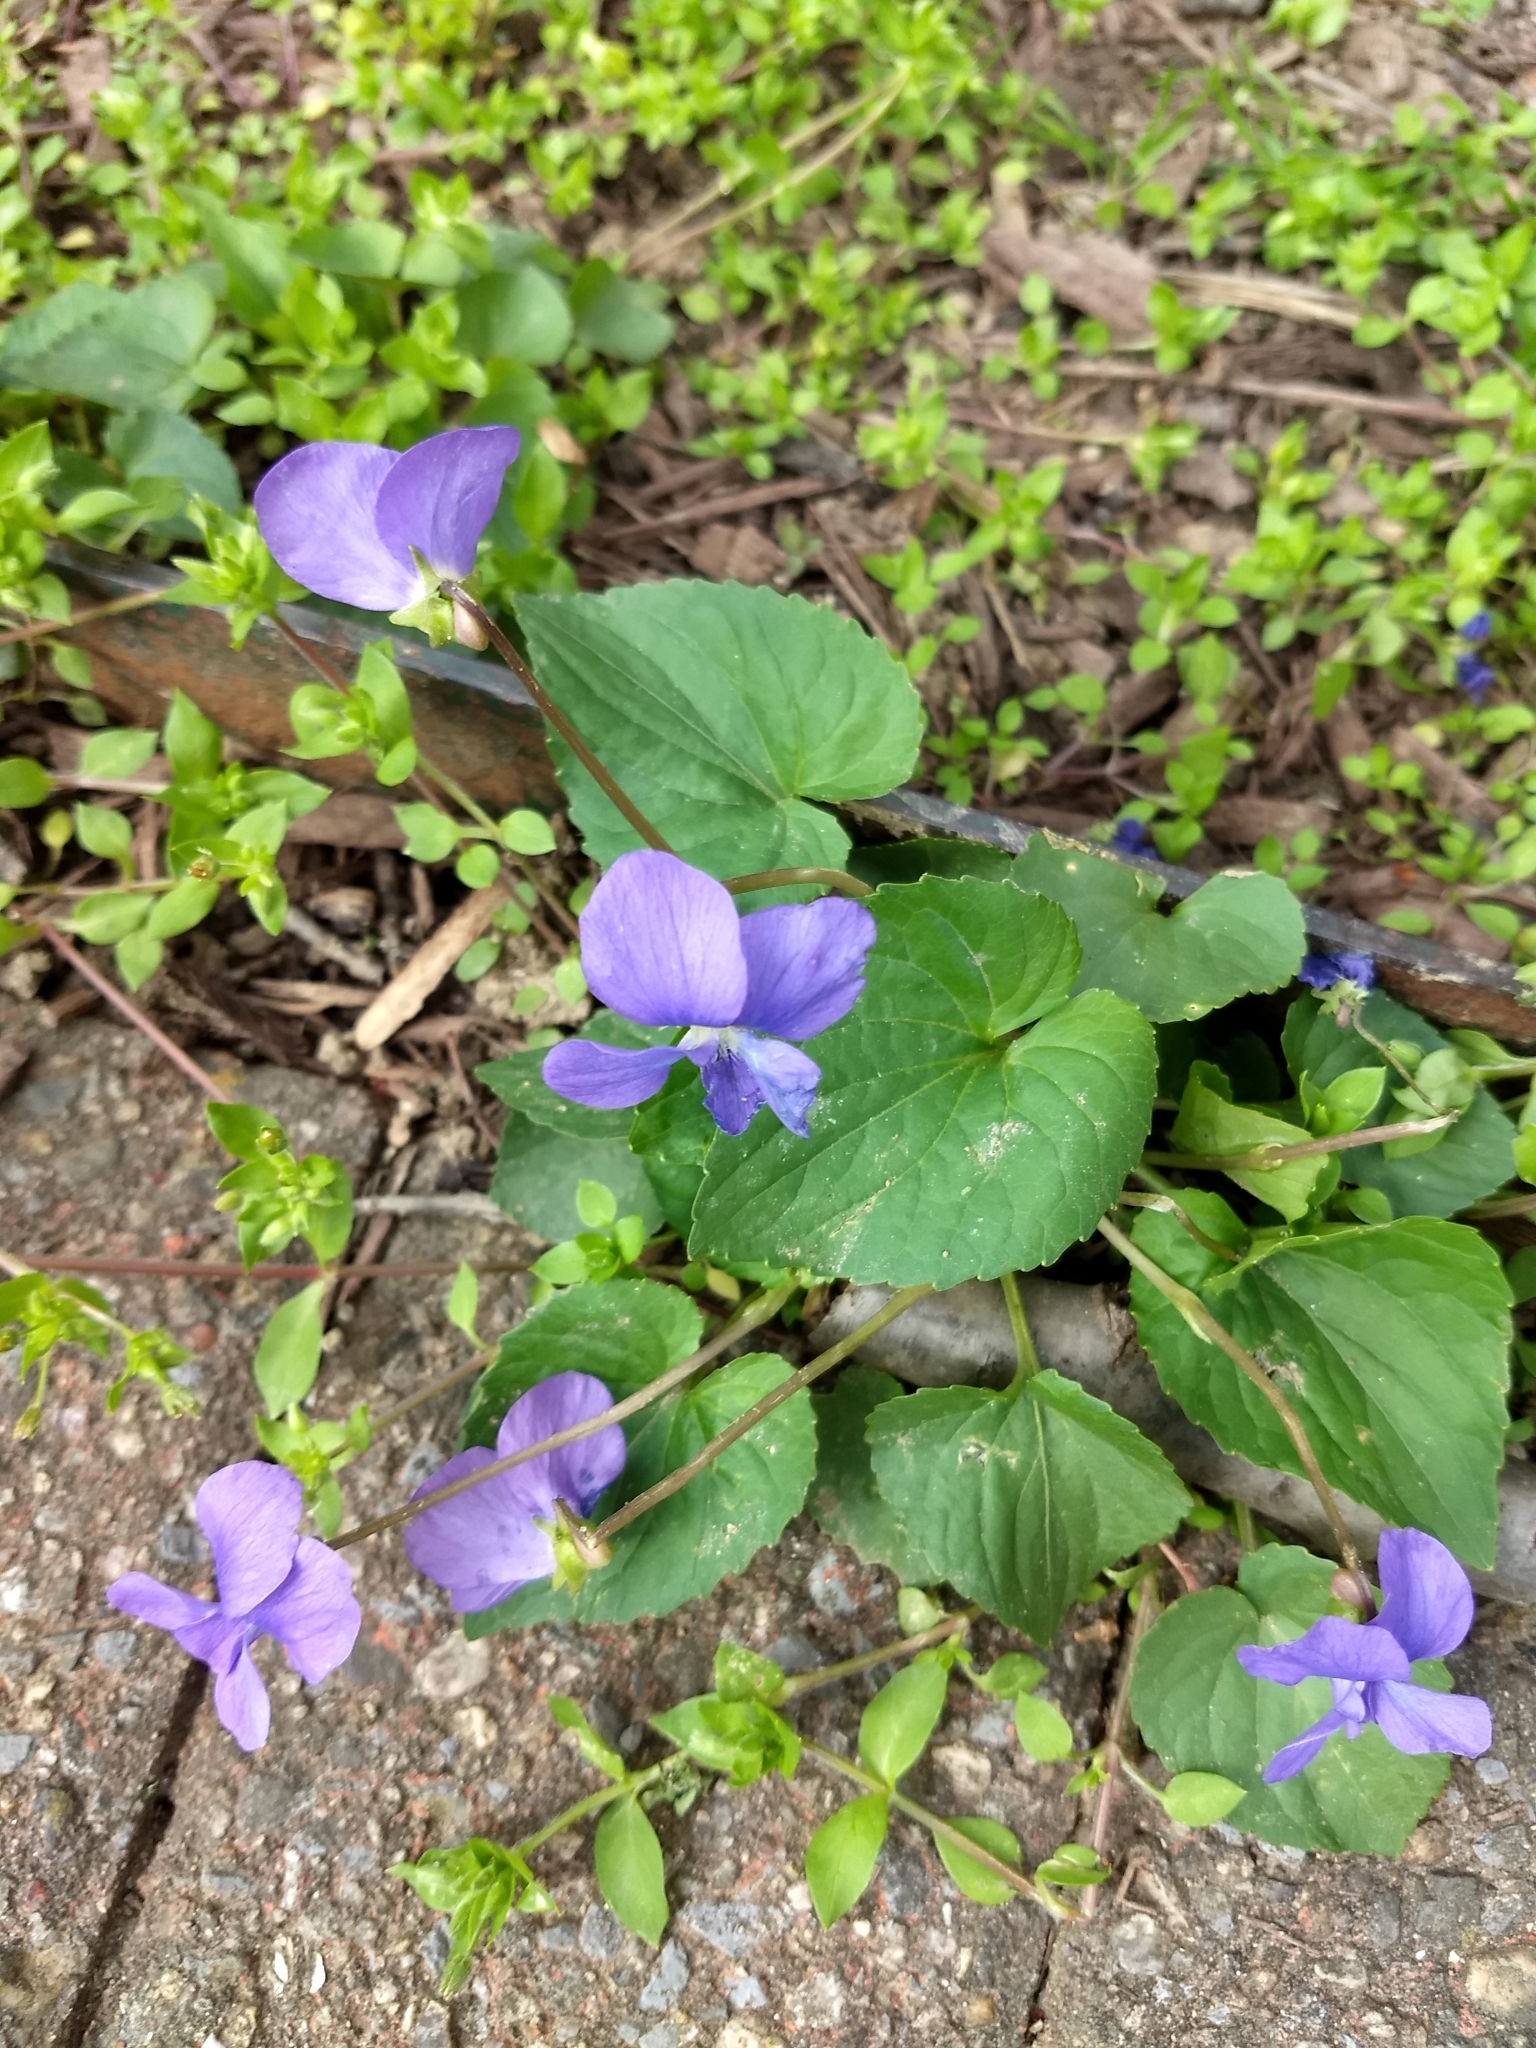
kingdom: Plantae
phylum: Tracheophyta
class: Magnoliopsida
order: Malpighiales
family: Violaceae
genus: Viola
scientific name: Viola sororia
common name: Dooryard violet
